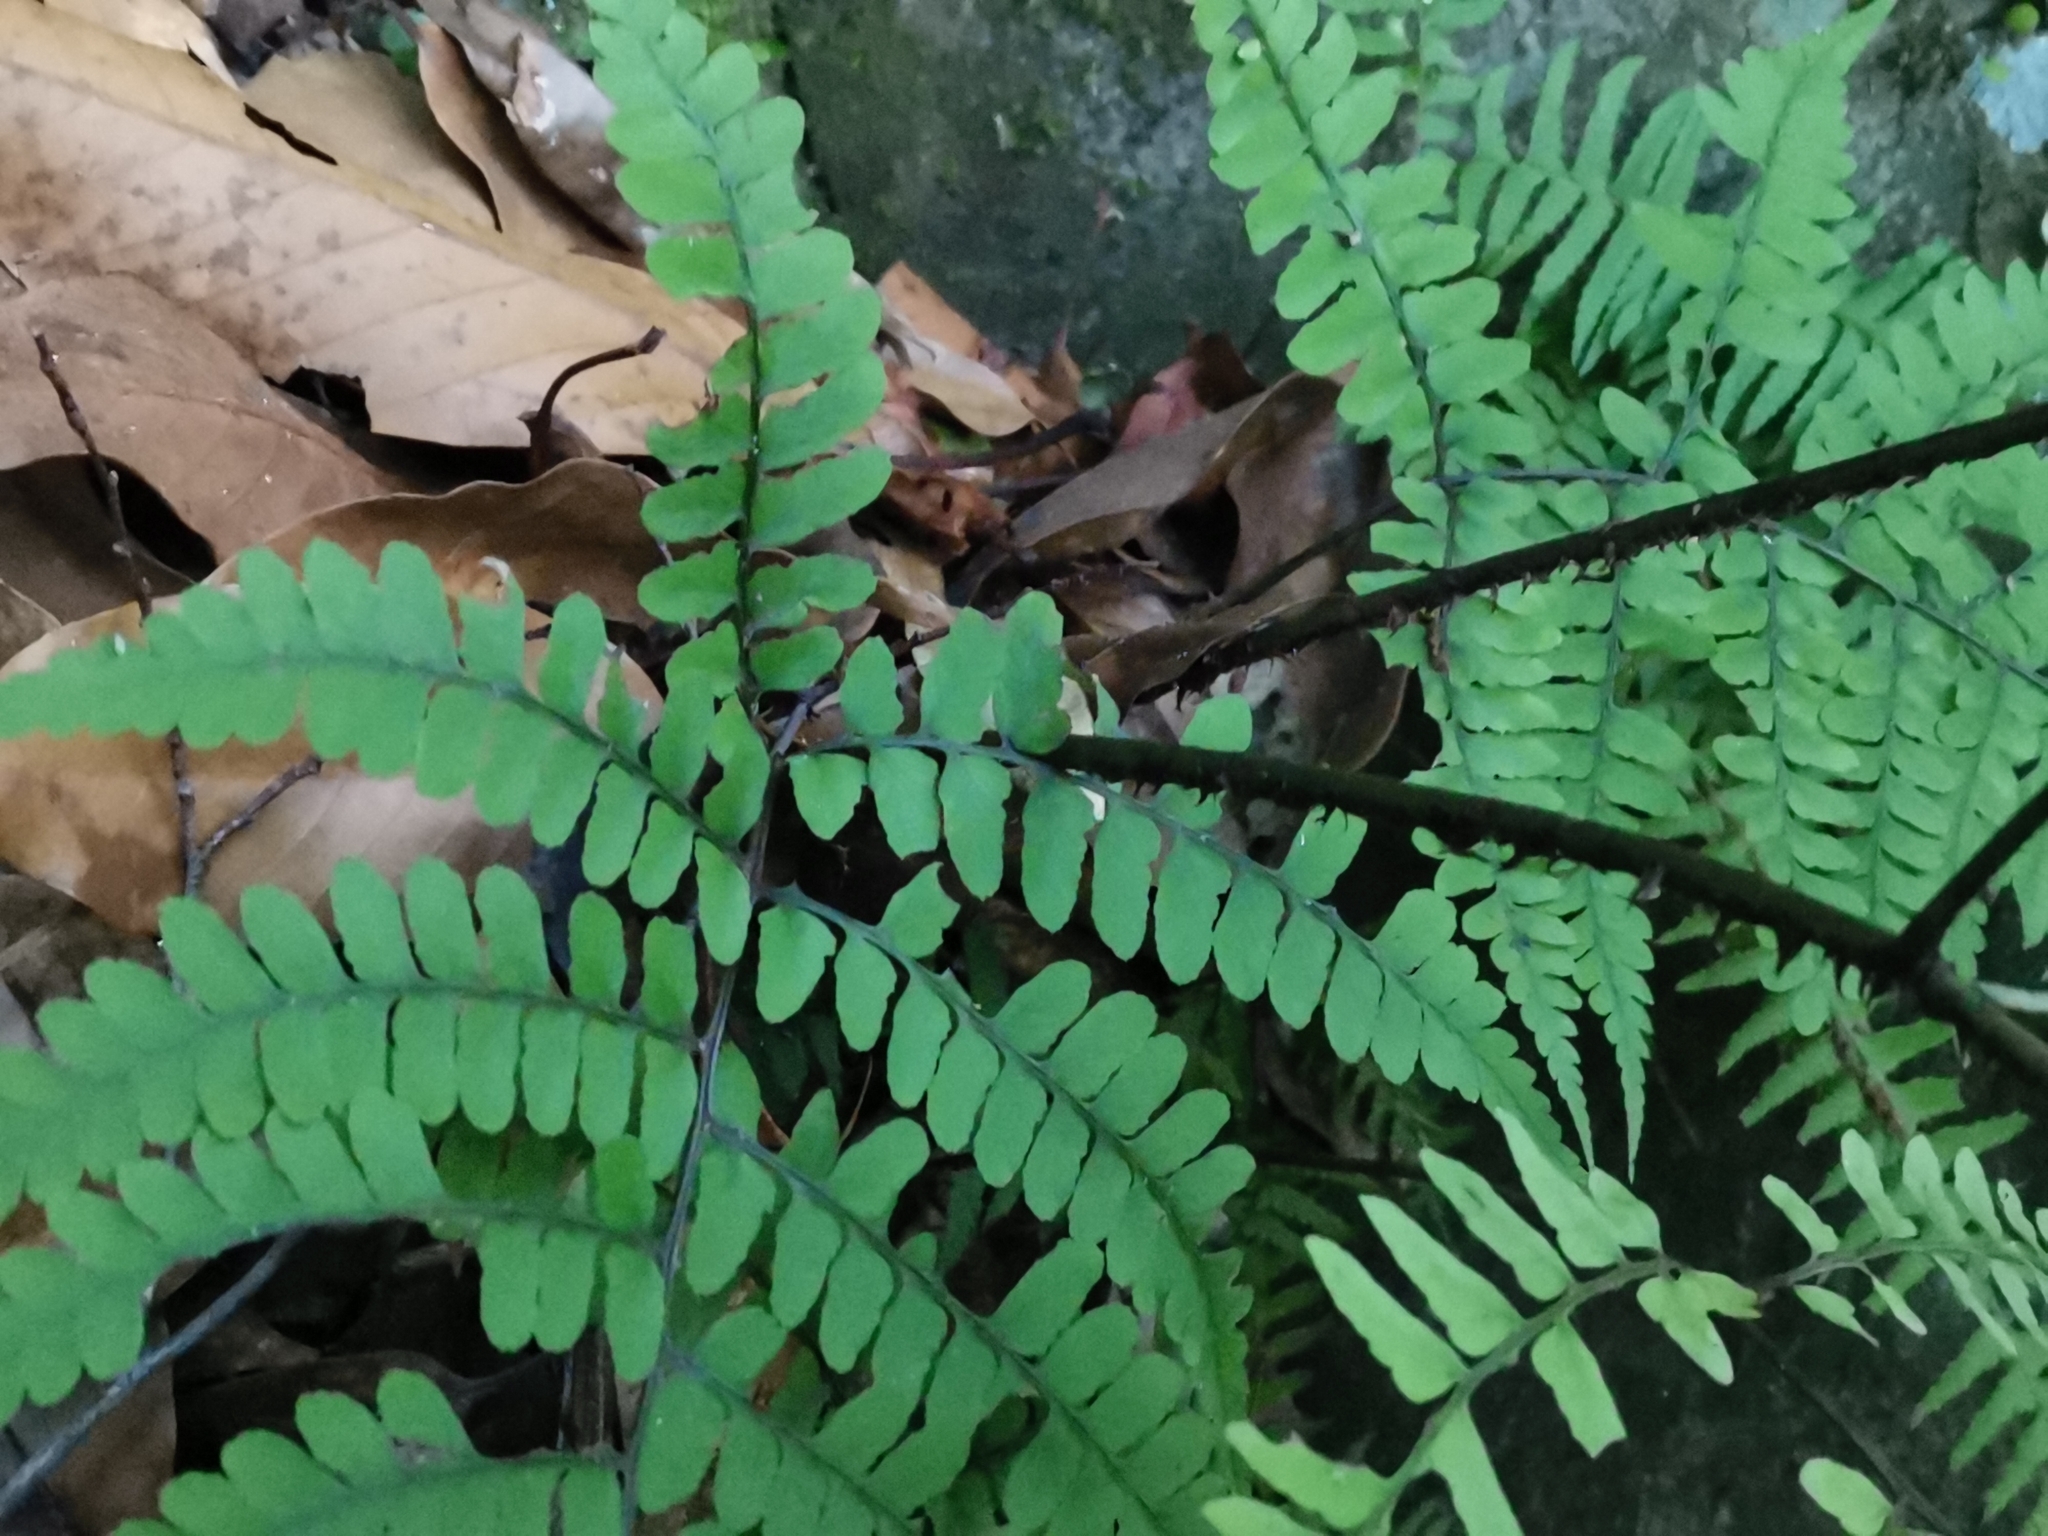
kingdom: Plantae
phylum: Tracheophyta
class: Polypodiopsida
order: Polypodiales
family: Athyriaceae
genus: Diplazium
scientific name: Diplazium squamigerum
